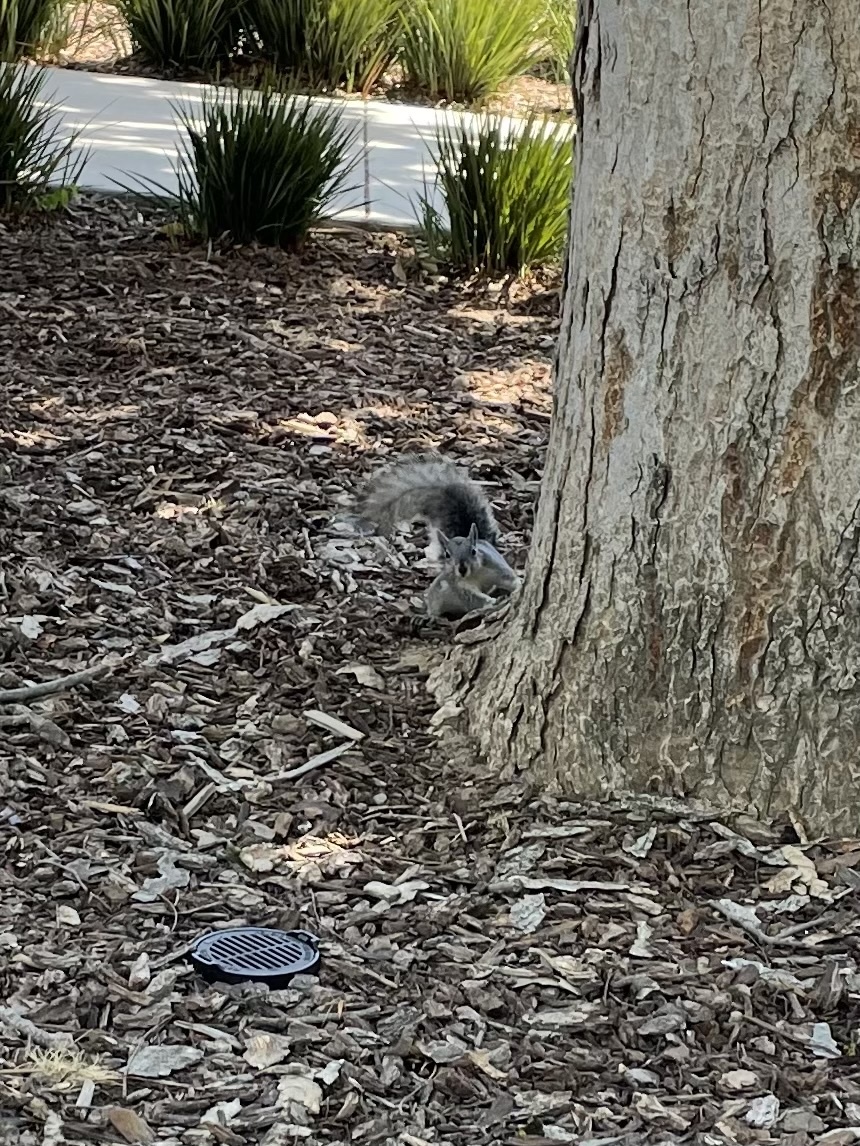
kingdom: Animalia
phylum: Chordata
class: Mammalia
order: Rodentia
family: Sciuridae
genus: Sciurus
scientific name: Sciurus griseus
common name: Western gray squirrel
